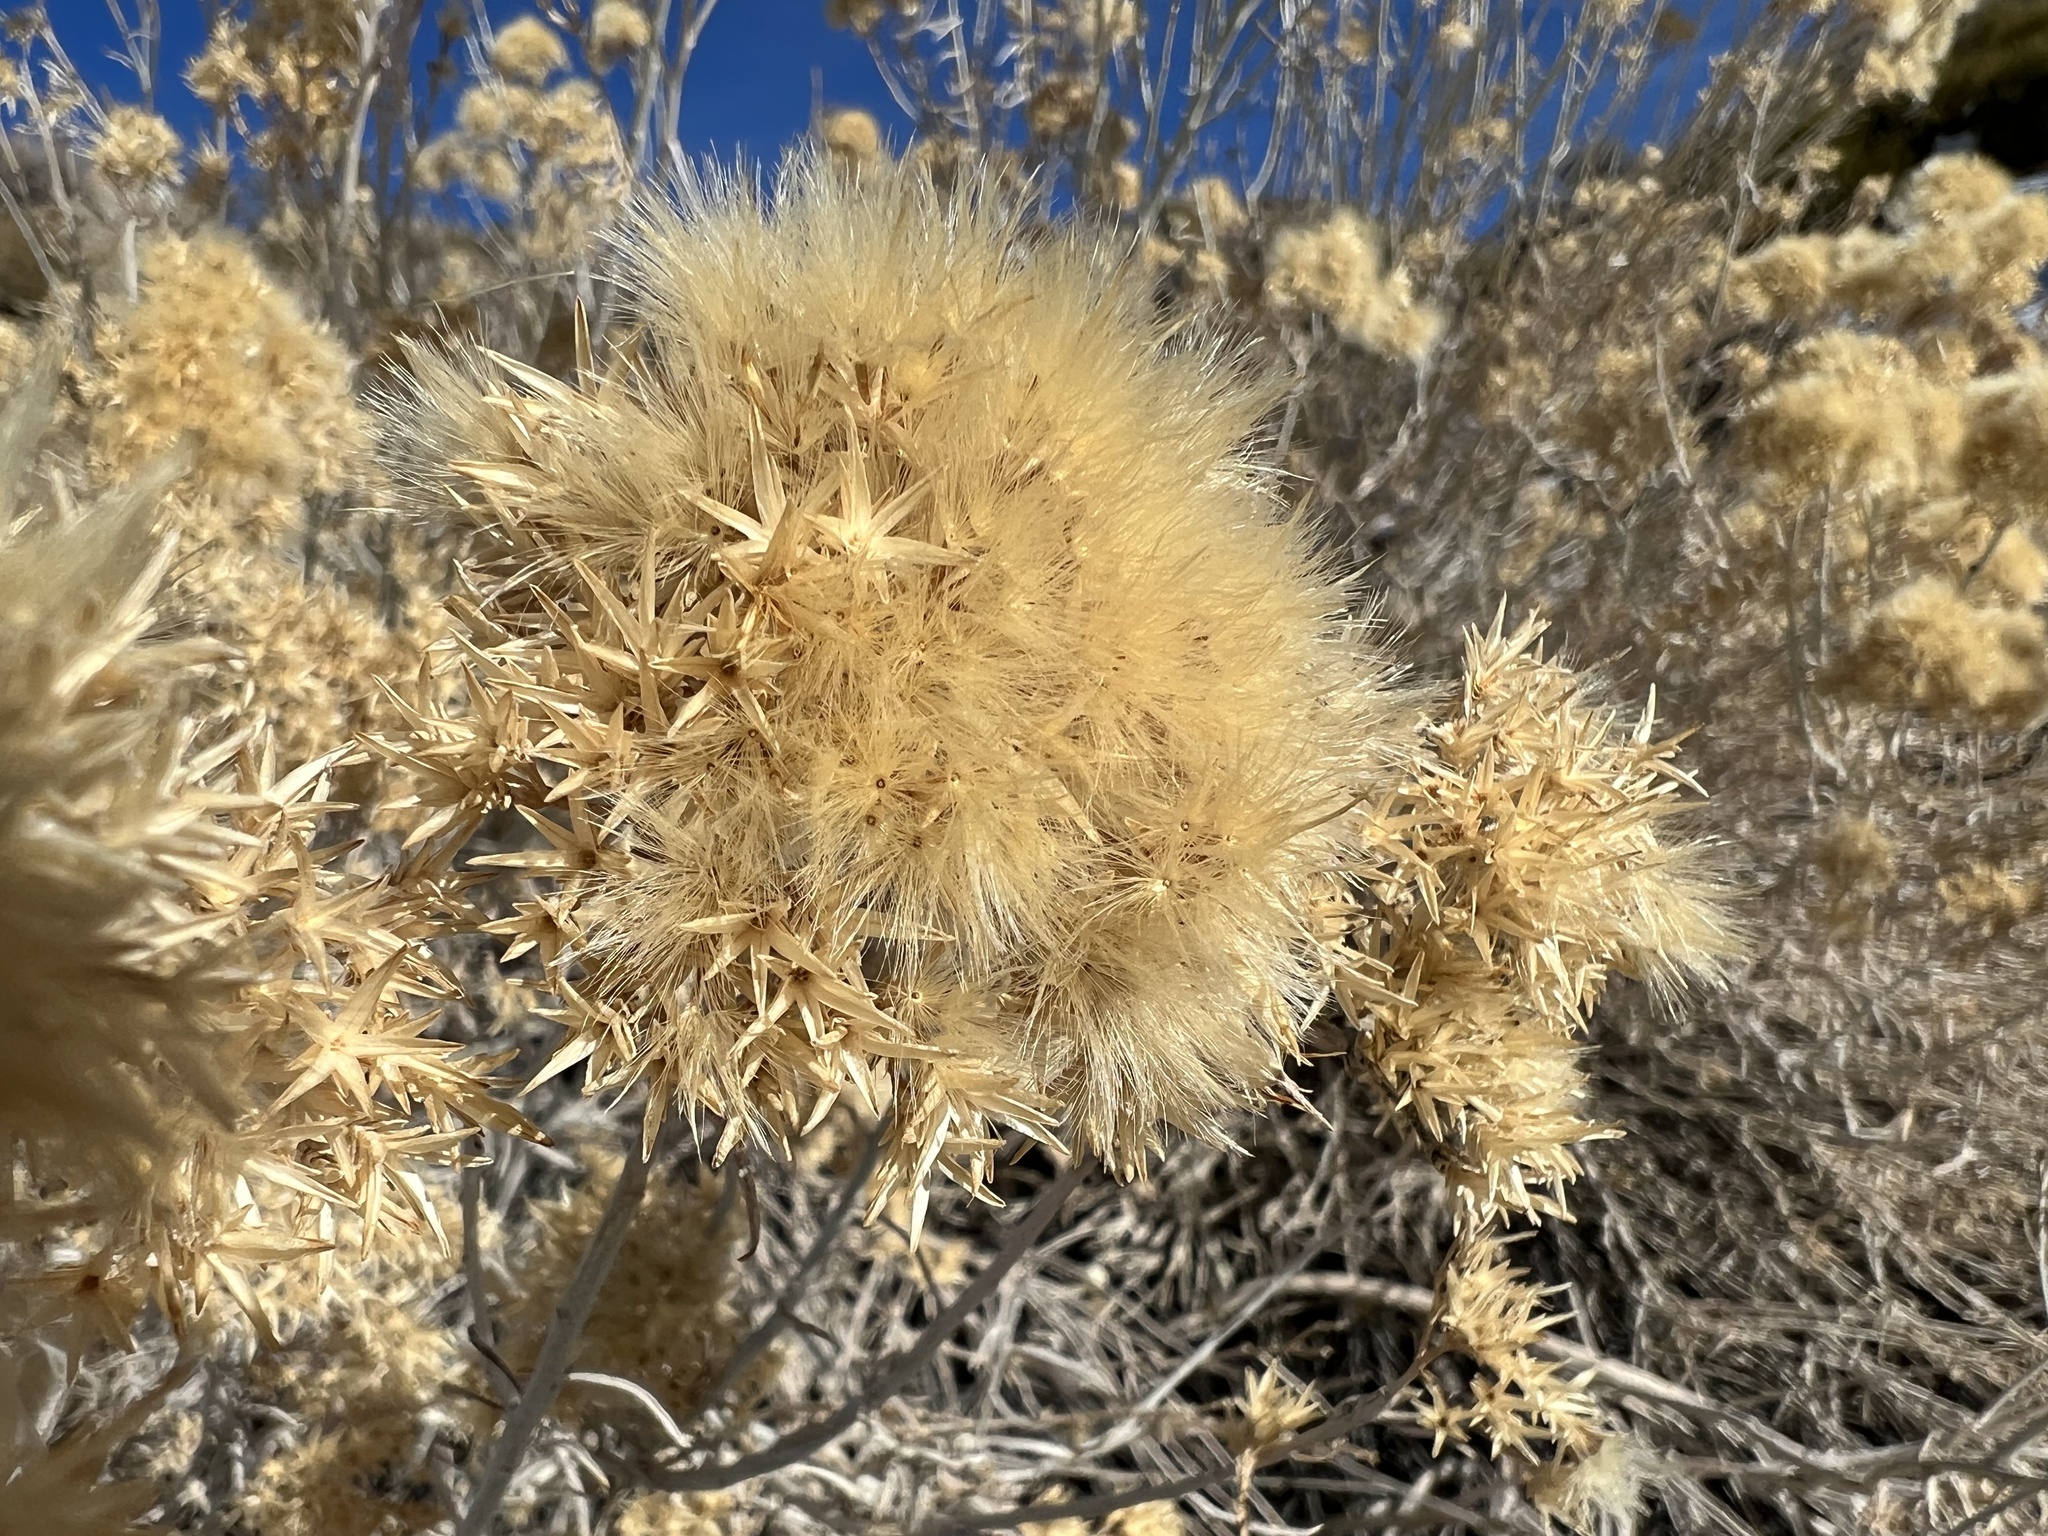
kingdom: Plantae
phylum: Tracheophyta
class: Magnoliopsida
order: Asterales
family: Asteraceae
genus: Ericameria
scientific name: Ericameria nauseosa
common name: Rubber rabbitbrush
